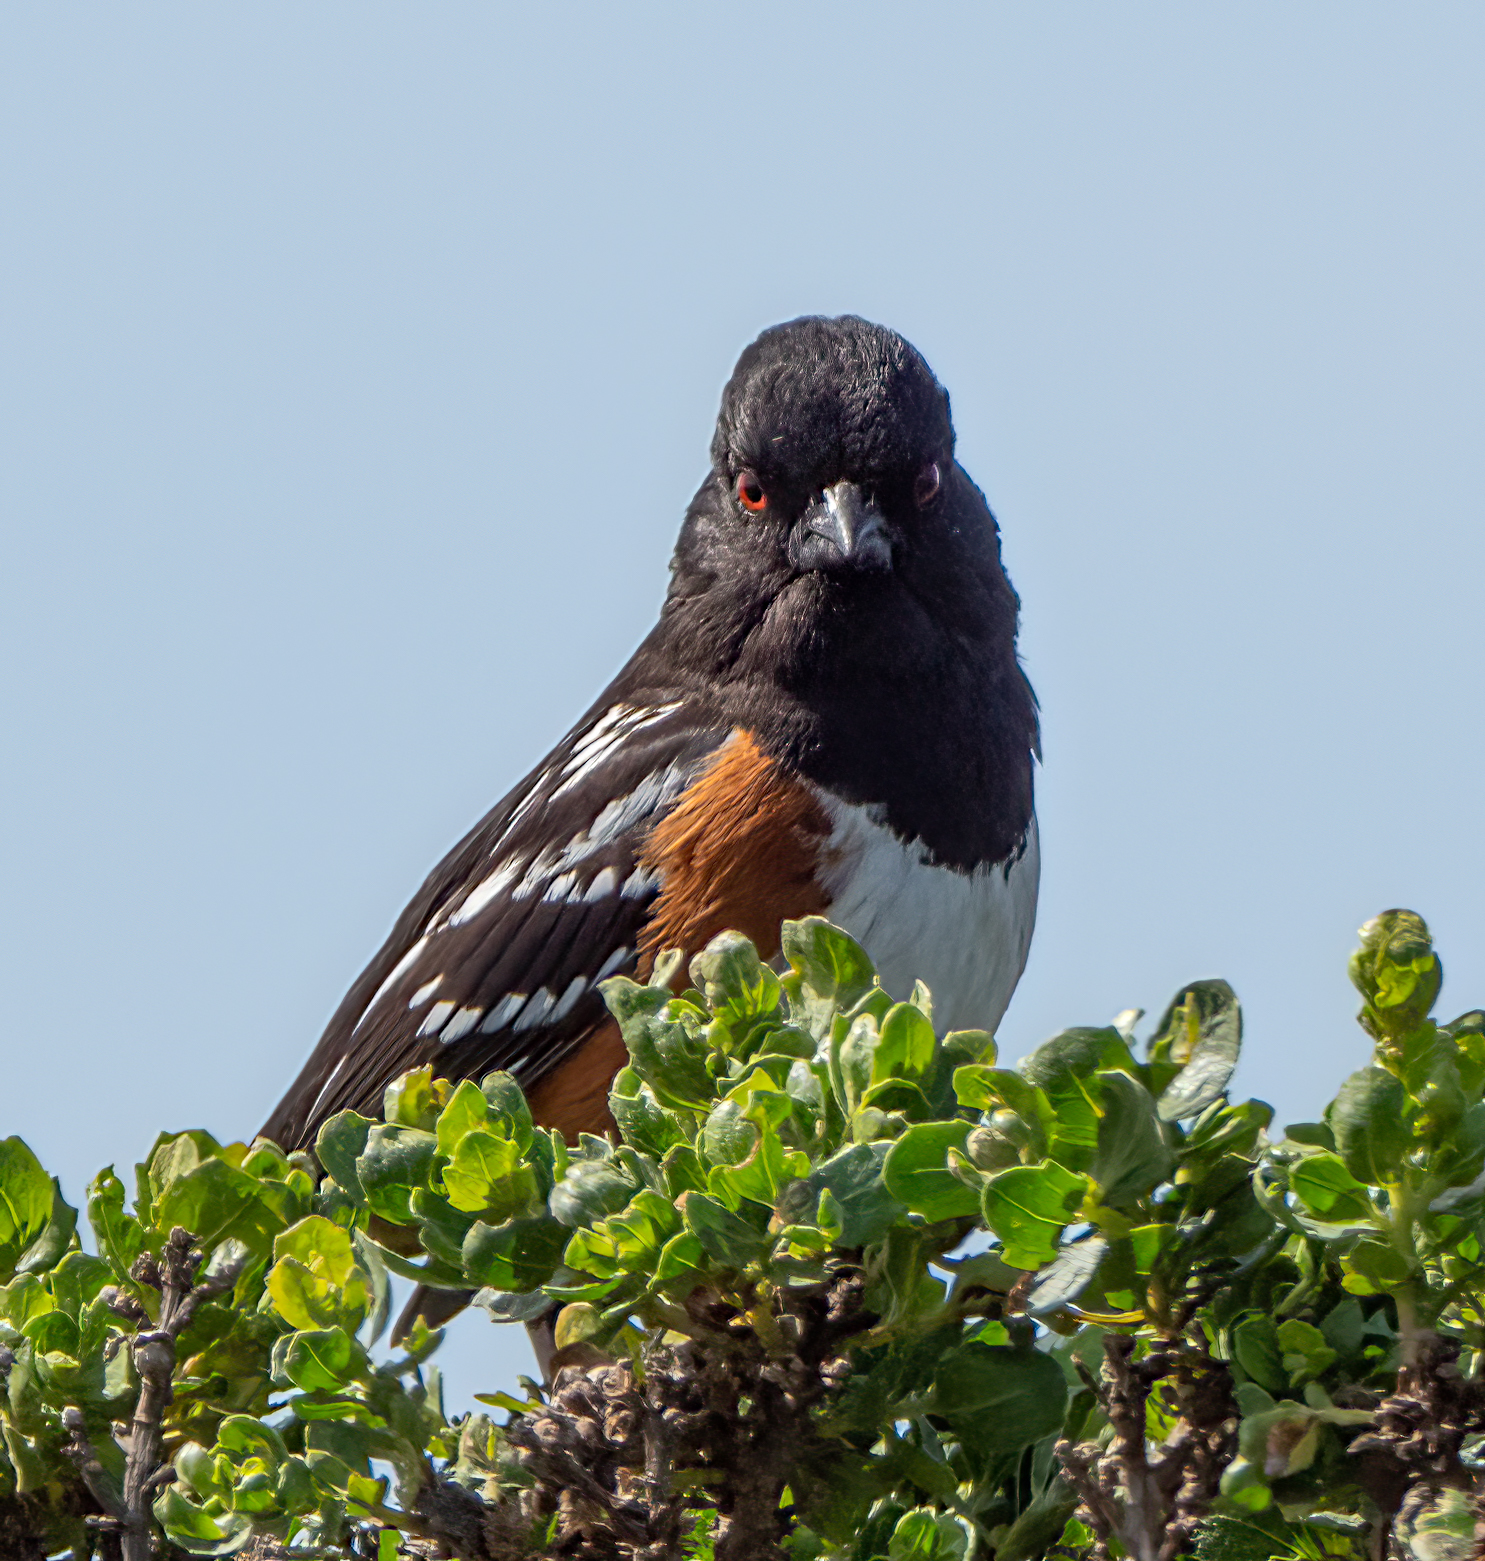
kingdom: Animalia
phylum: Chordata
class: Aves
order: Passeriformes
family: Passerellidae
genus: Pipilo
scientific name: Pipilo maculatus
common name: Spotted towhee
